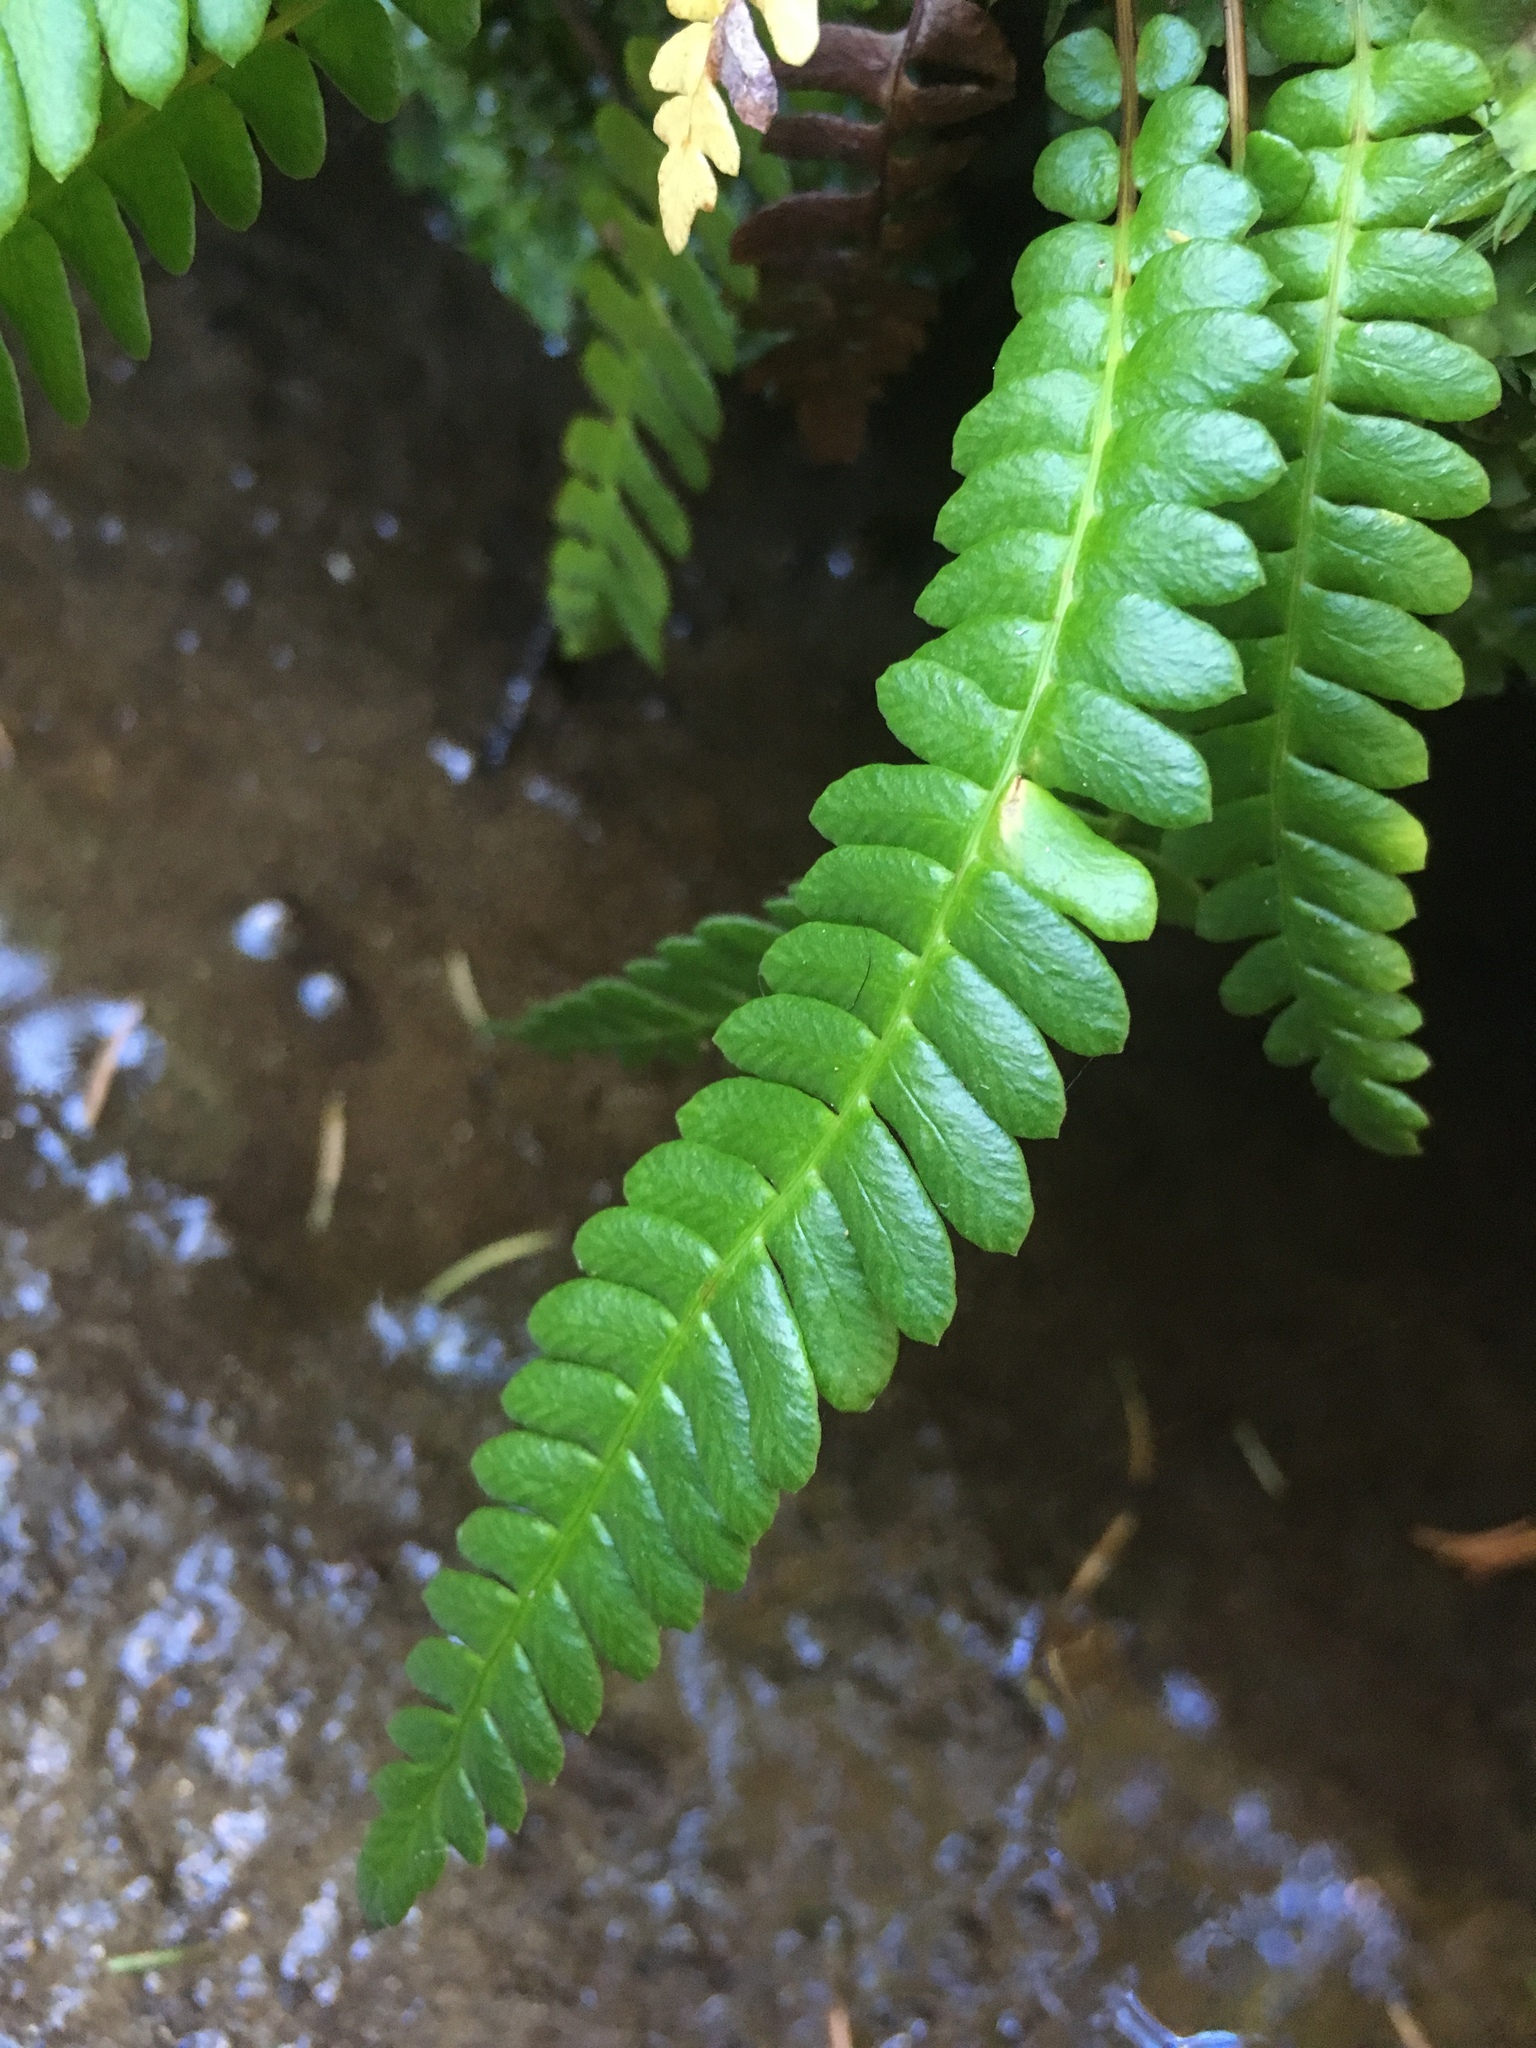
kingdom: Plantae
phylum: Tracheophyta
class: Polypodiopsida
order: Polypodiales
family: Blechnaceae
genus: Struthiopteris
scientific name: Struthiopteris spicant
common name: Deer fern
